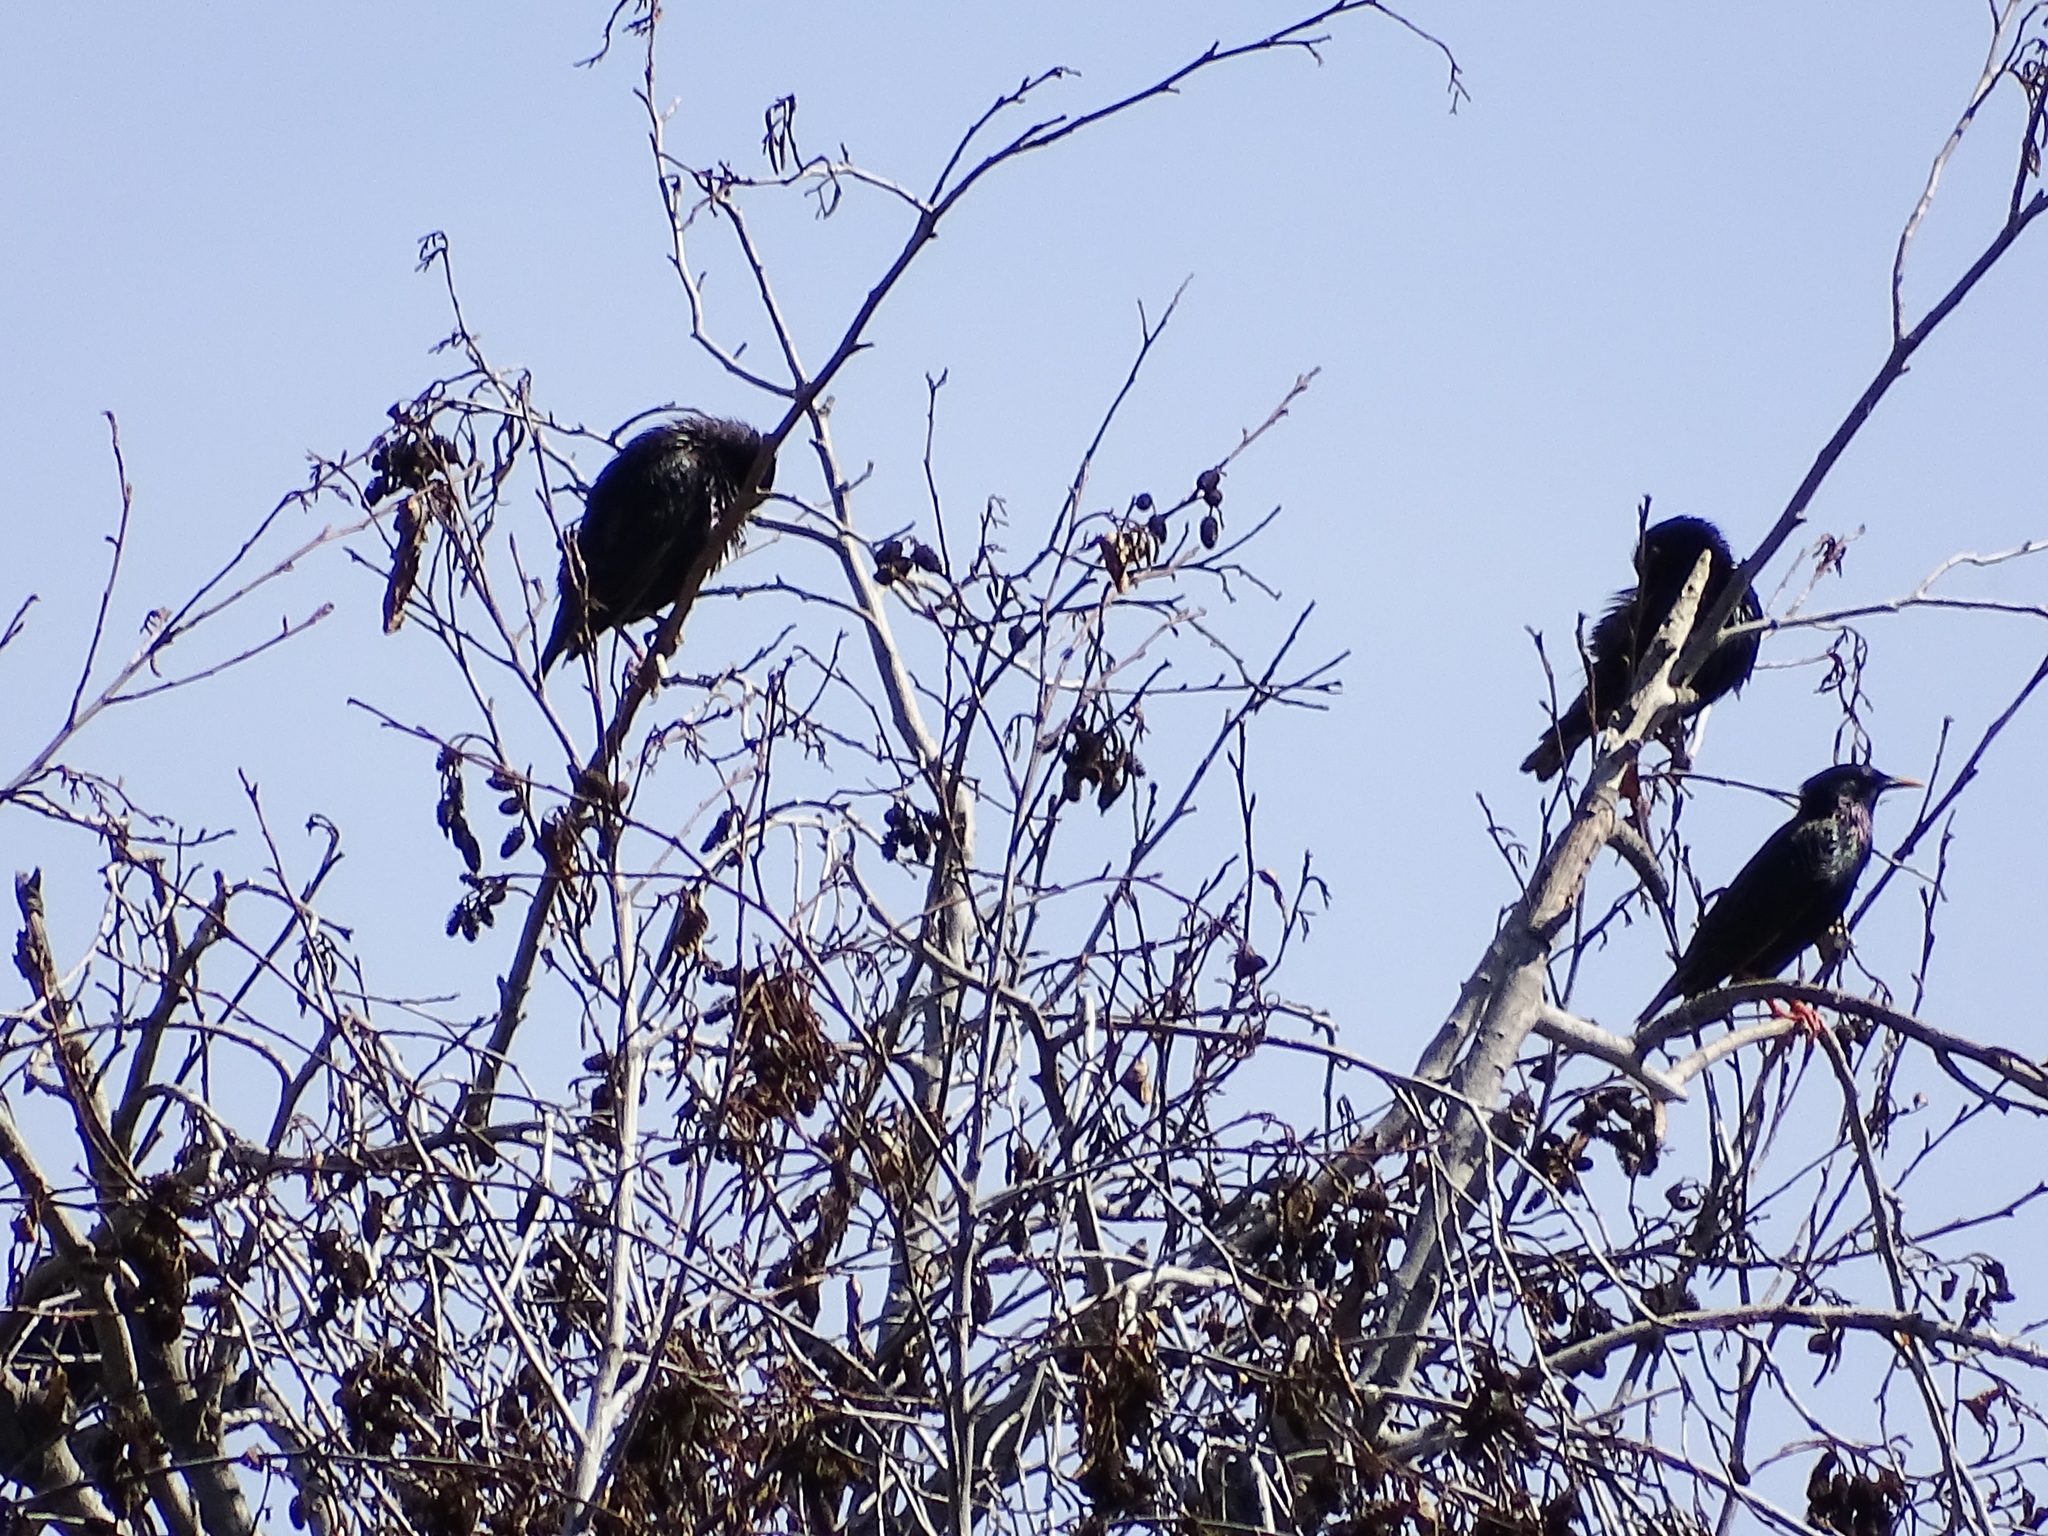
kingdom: Animalia
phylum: Chordata
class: Aves
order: Passeriformes
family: Sturnidae
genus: Sturnus
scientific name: Sturnus vulgaris
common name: Common starling
